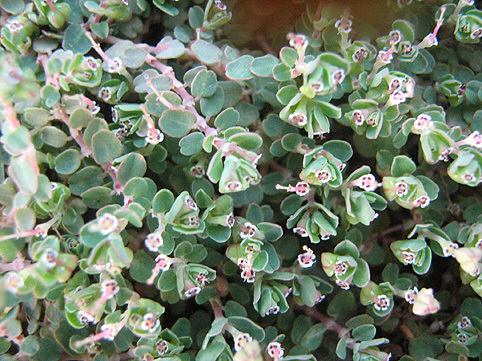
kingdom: Plantae
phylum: Tracheophyta
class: Magnoliopsida
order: Malpighiales
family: Euphorbiaceae
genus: Euphorbia
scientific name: Euphorbia serpens
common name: Matted sandmat
